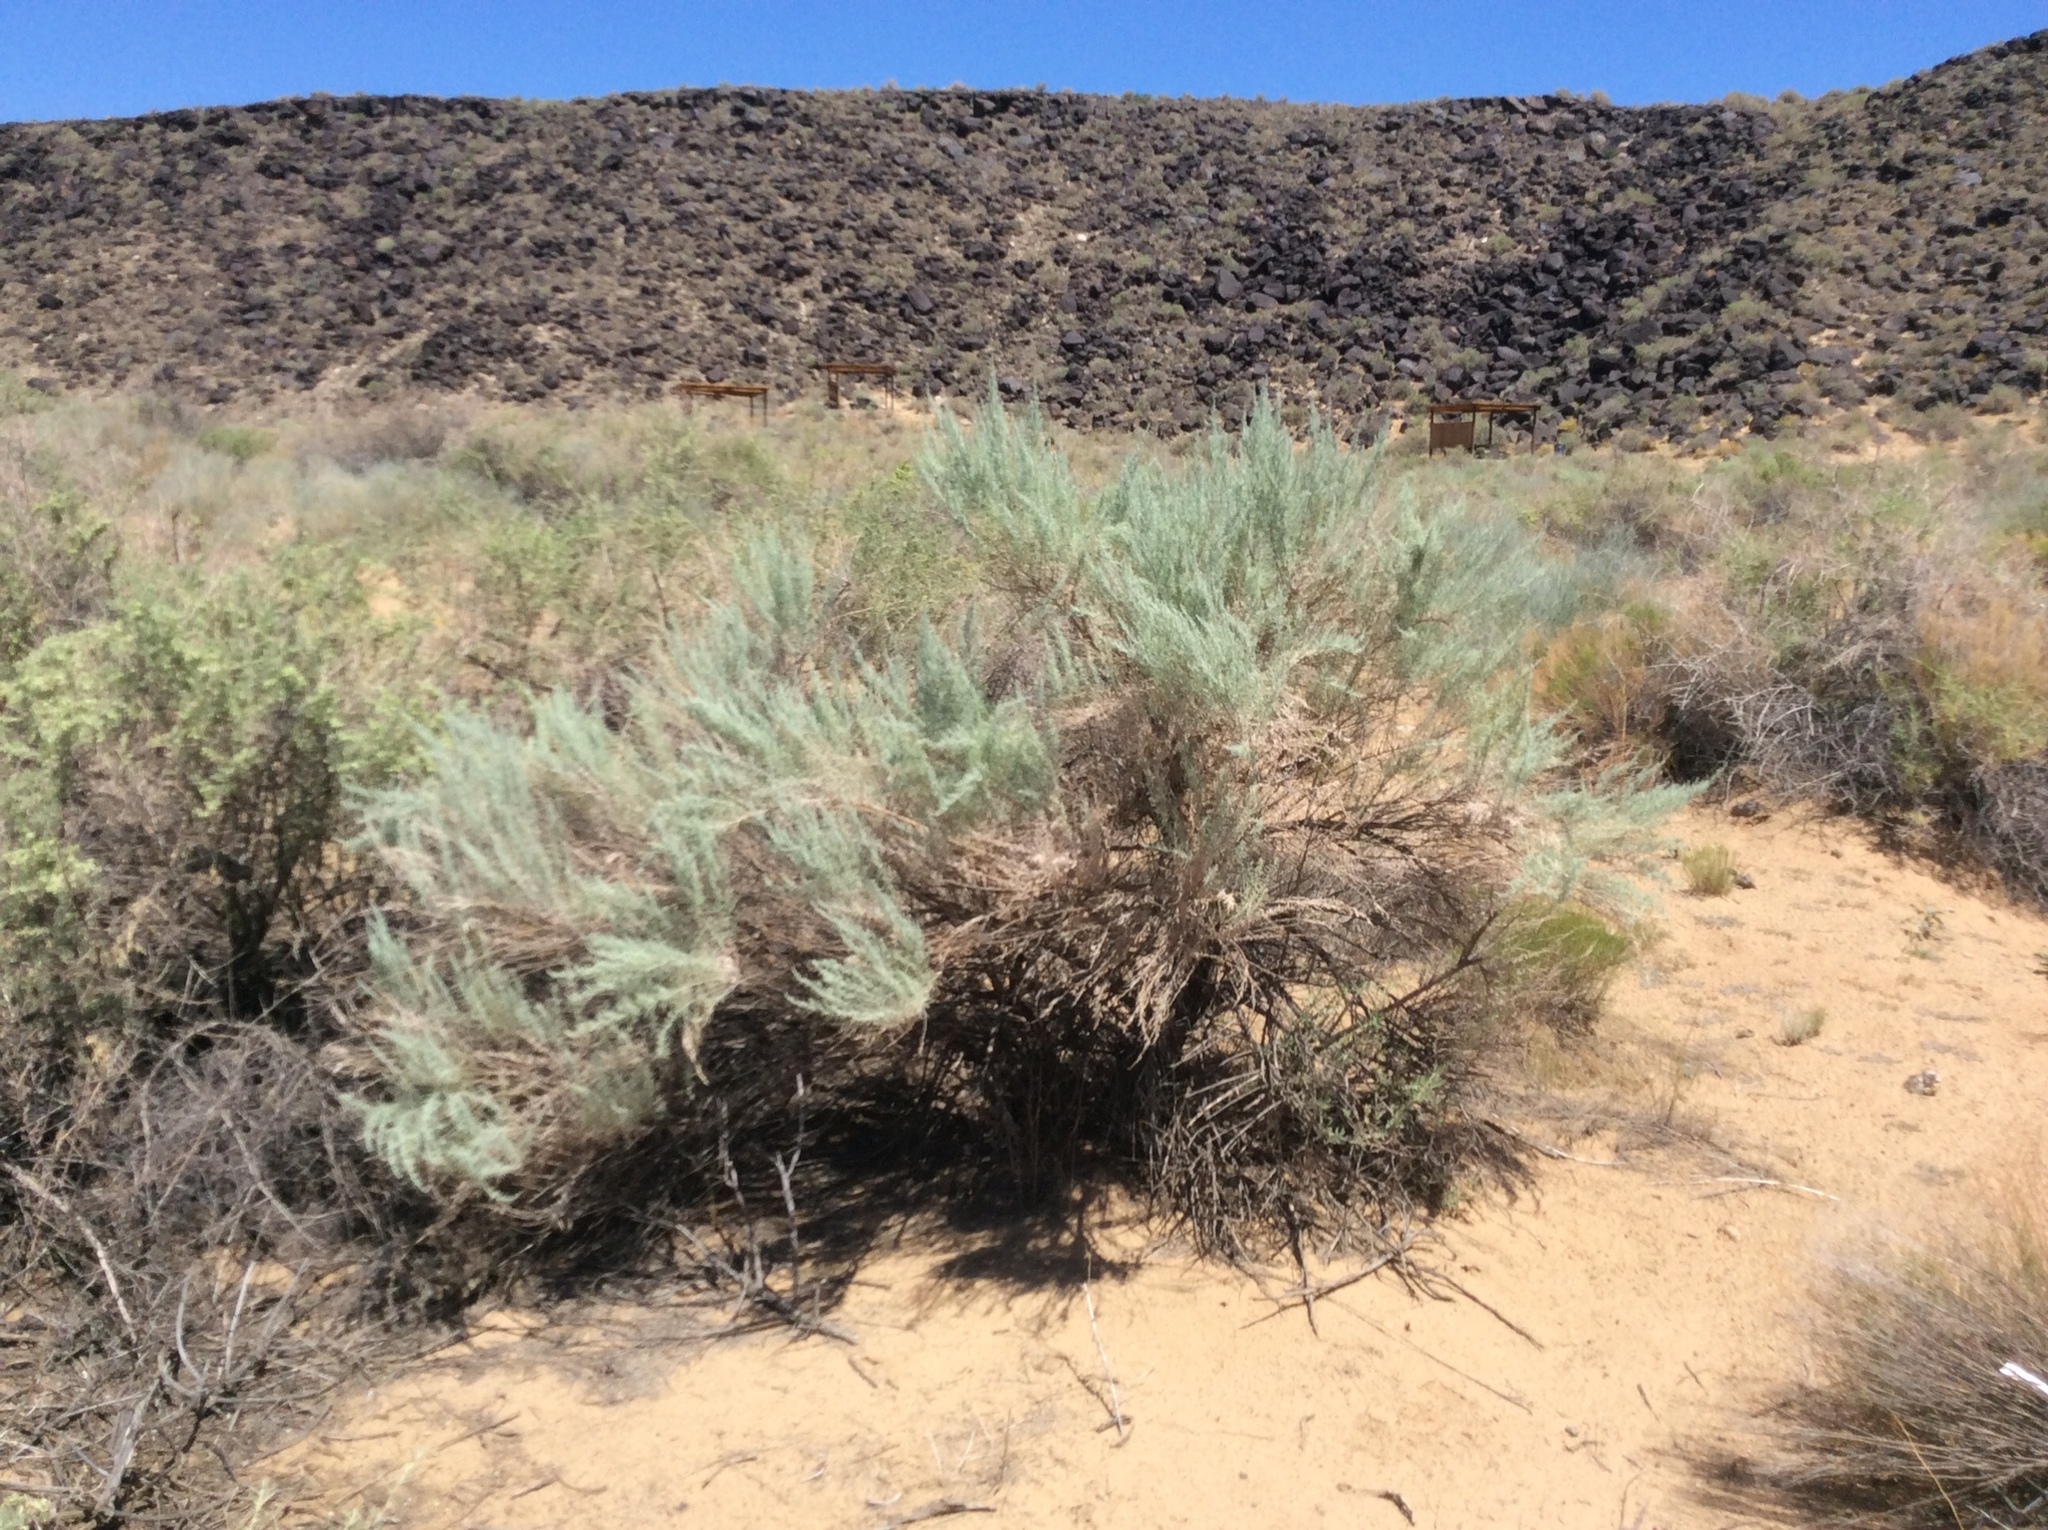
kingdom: Plantae
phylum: Tracheophyta
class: Magnoliopsida
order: Asterales
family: Asteraceae
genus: Artemisia
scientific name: Artemisia filifolia
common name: Sand-sage
